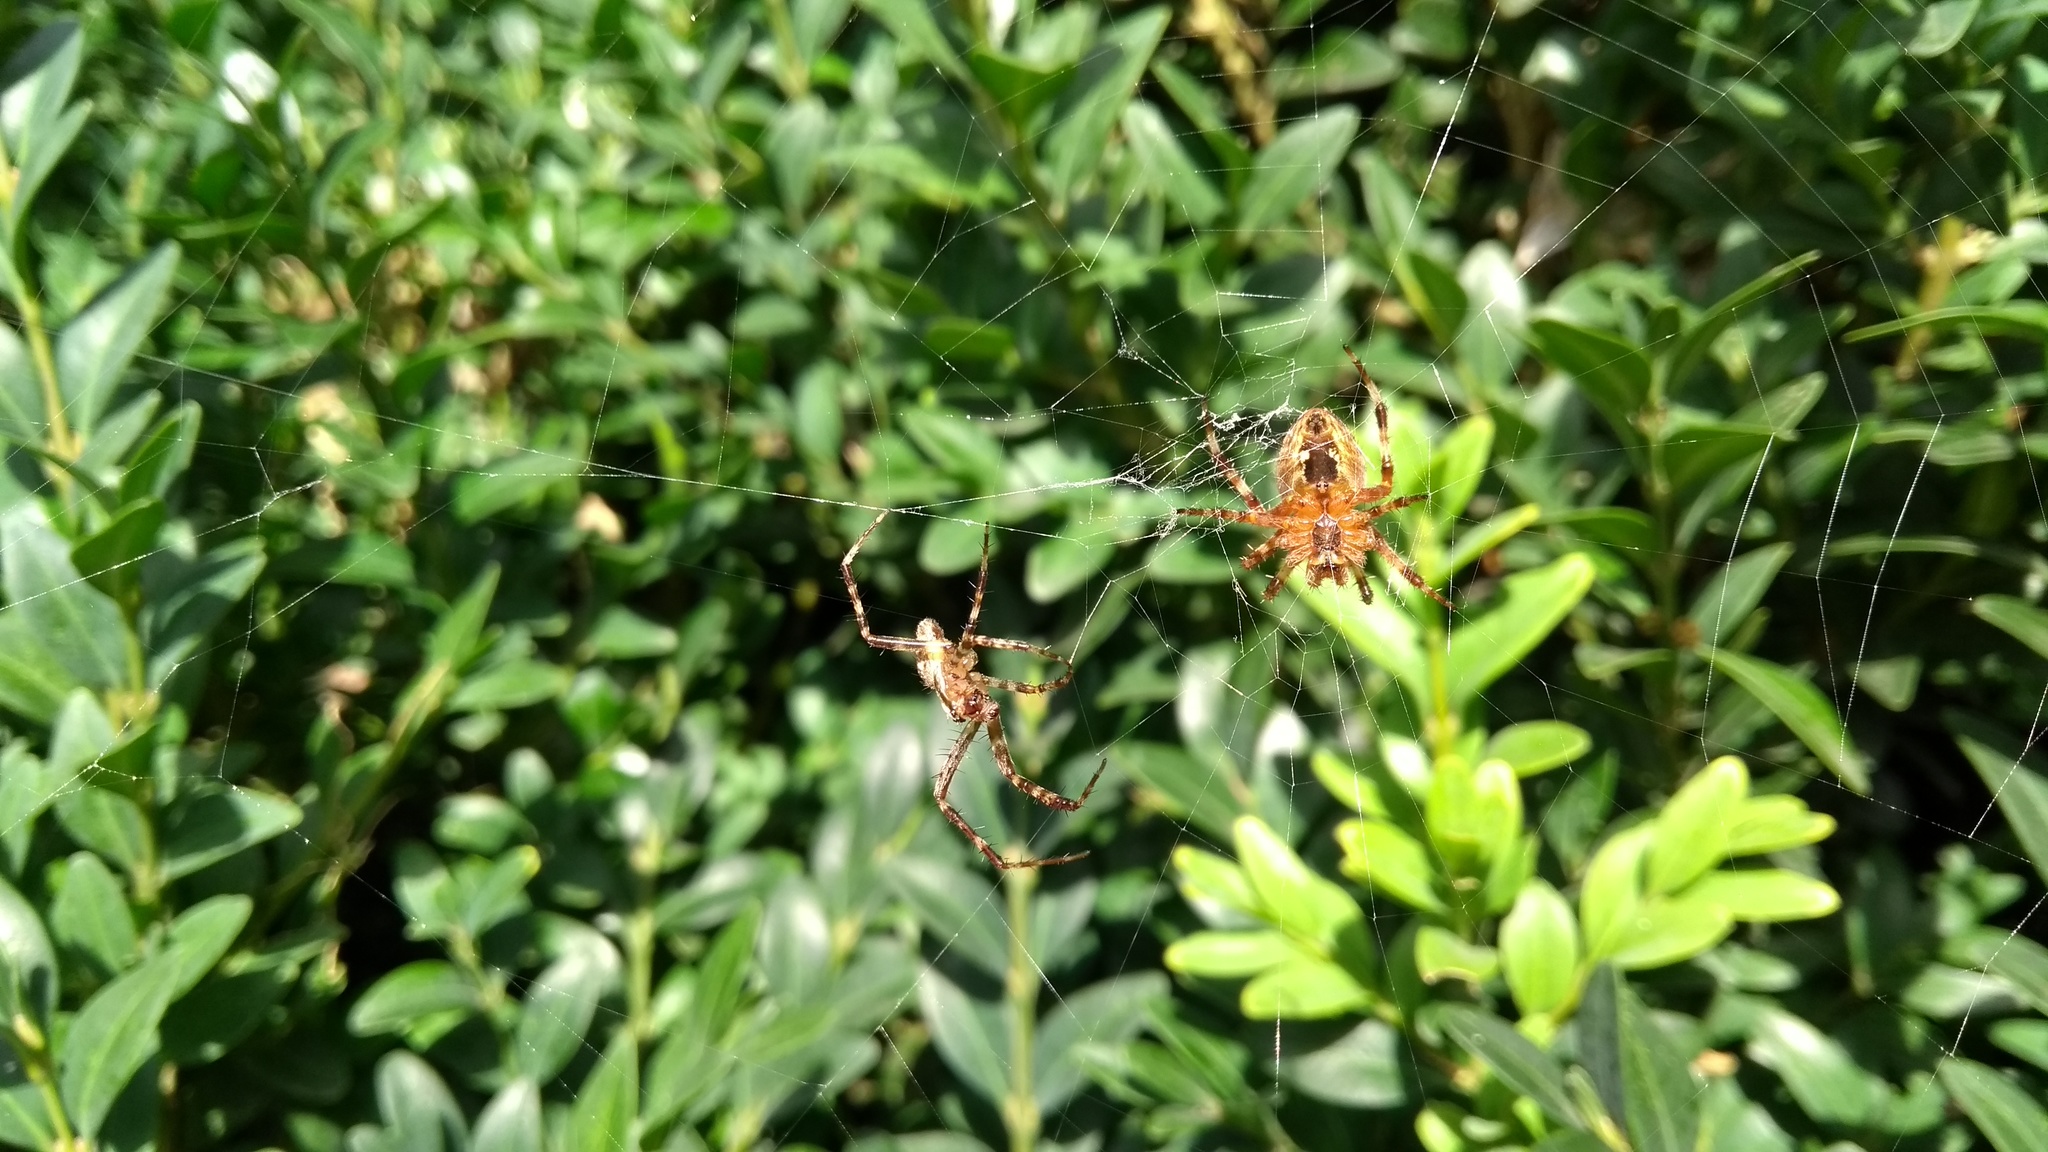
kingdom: Animalia
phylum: Arthropoda
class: Arachnida
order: Araneae
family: Araneidae
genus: Araneus
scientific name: Araneus diadematus
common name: Cross orbweaver
